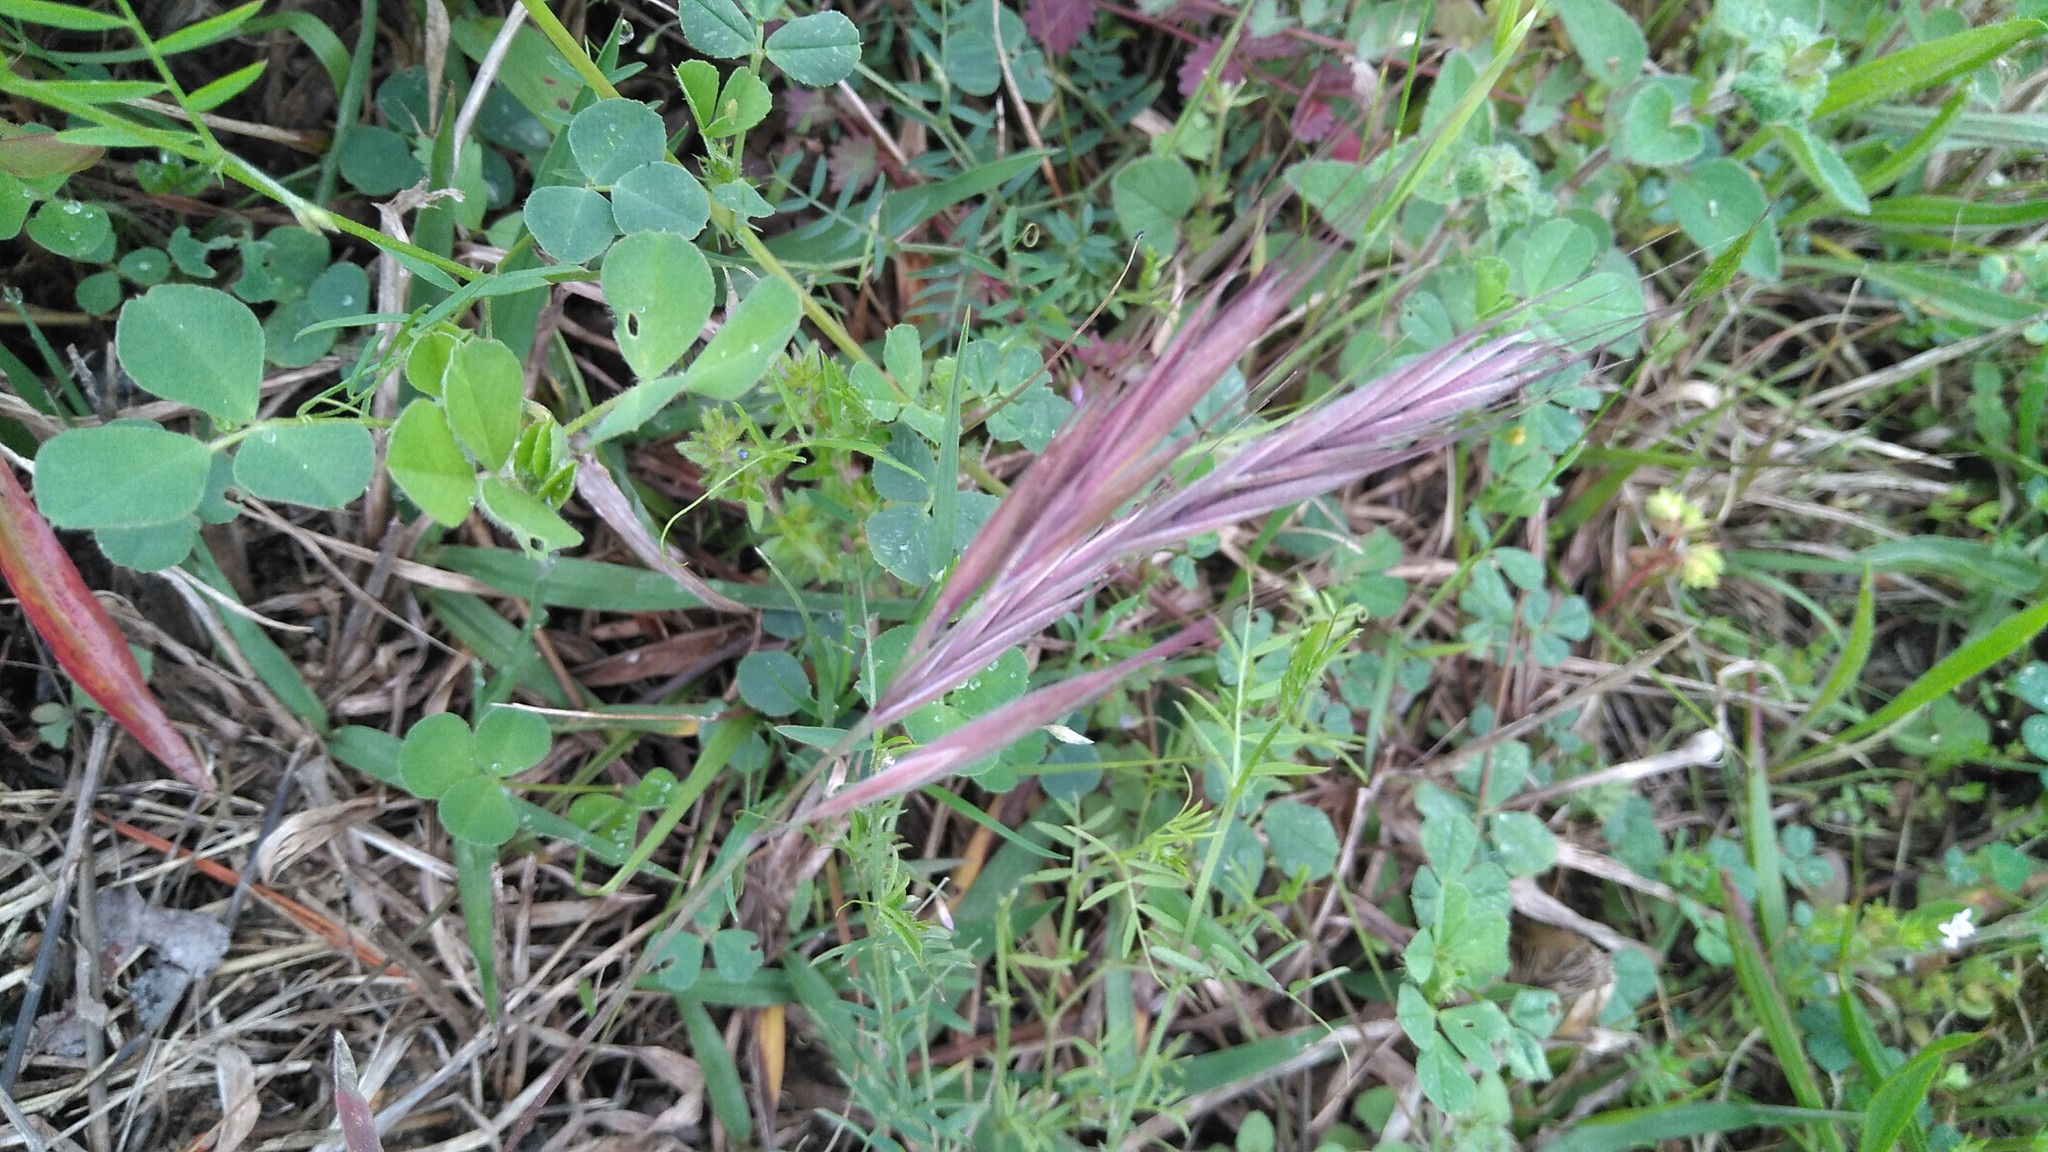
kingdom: Plantae
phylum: Tracheophyta
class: Liliopsida
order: Poales
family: Poaceae
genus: Bromus
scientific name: Bromus rubens
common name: Red brome
